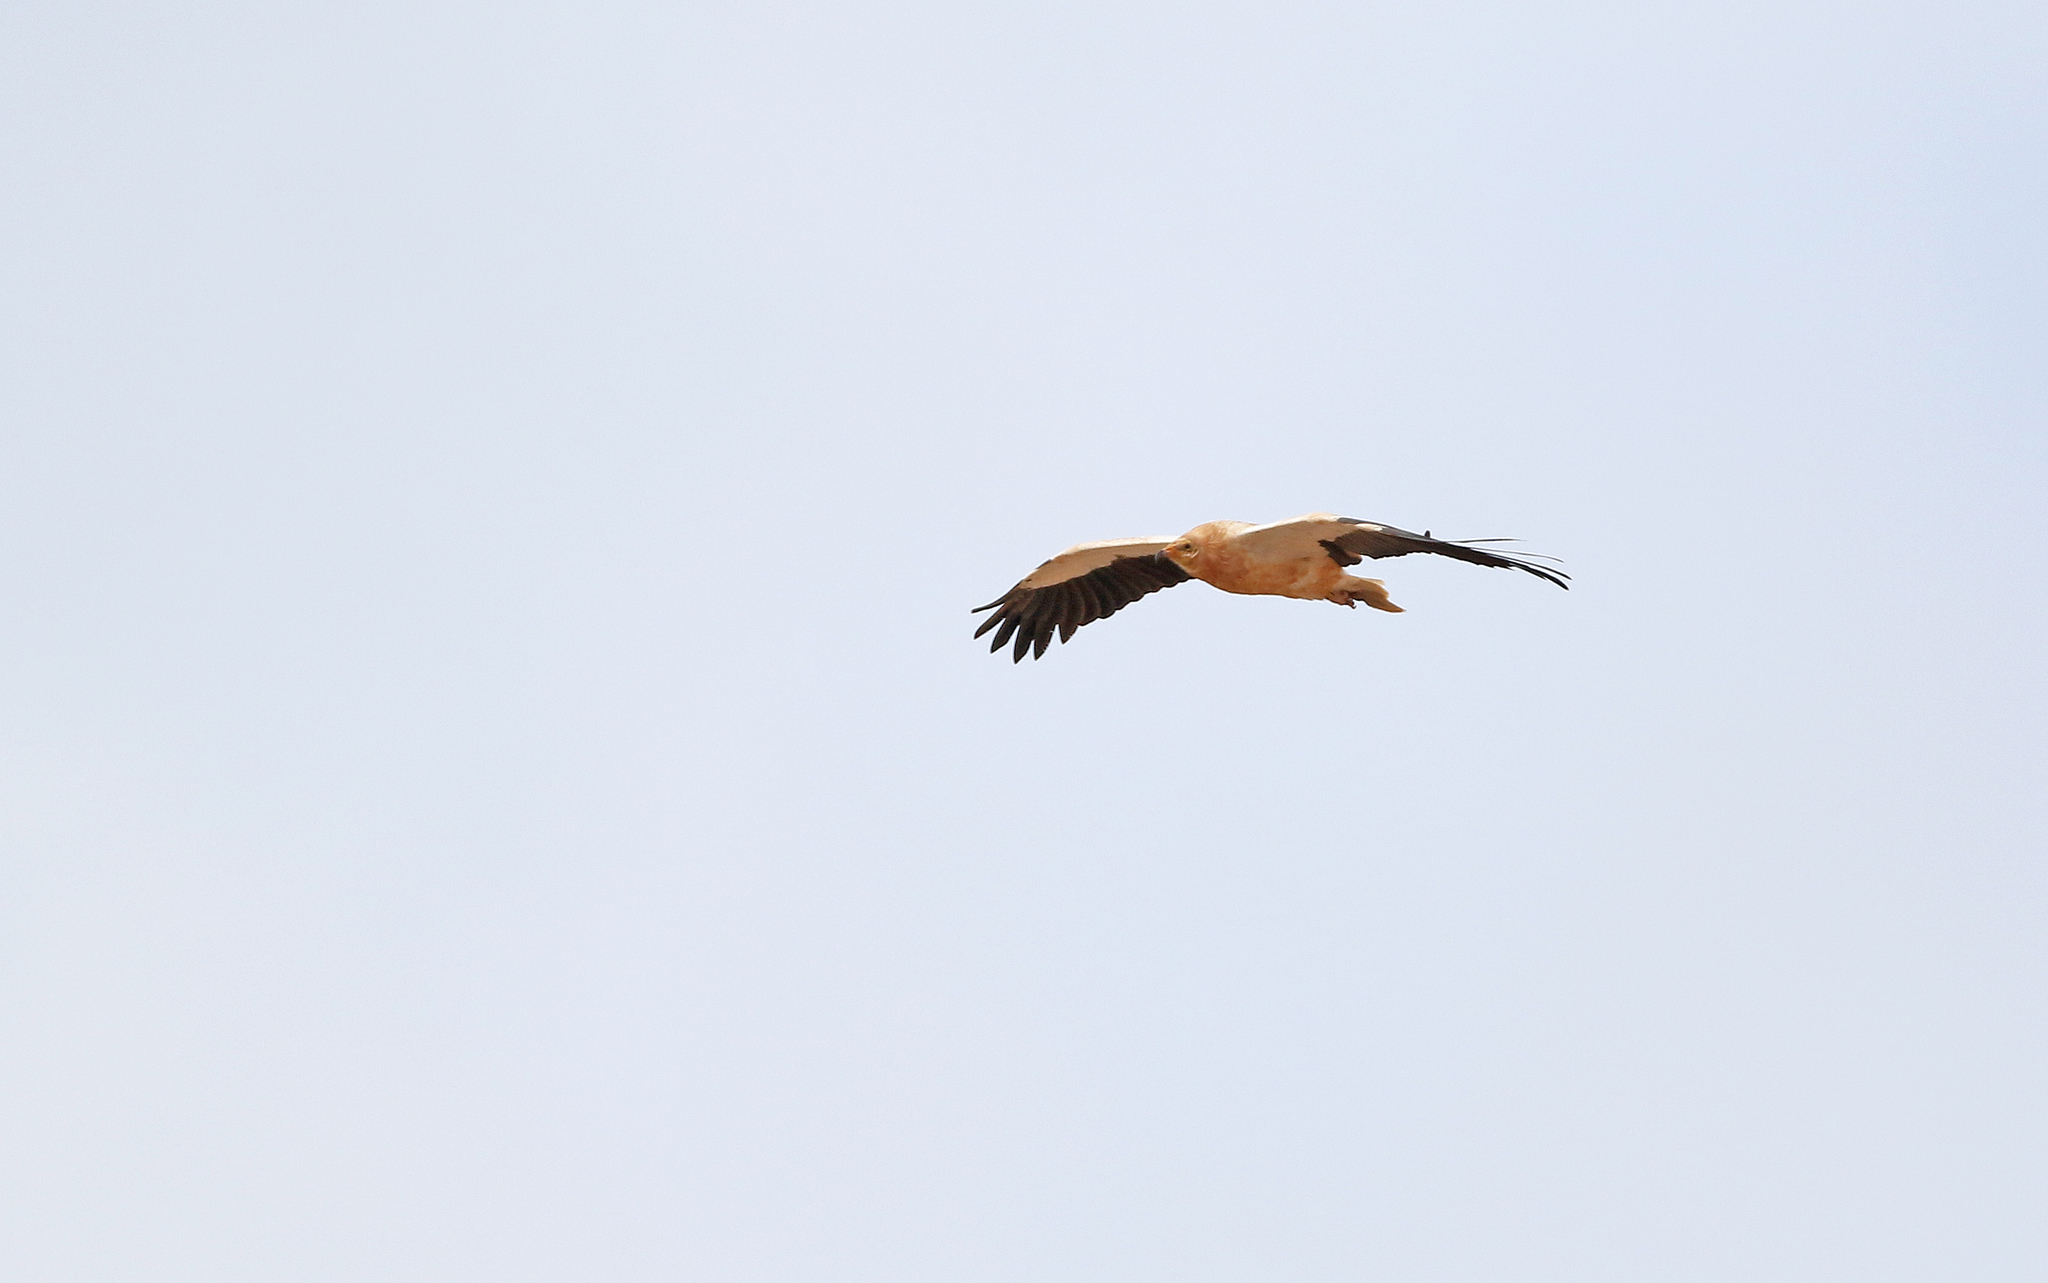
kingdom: Animalia
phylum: Chordata
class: Aves
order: Accipitriformes
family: Accipitridae
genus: Neophron
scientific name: Neophron percnopterus
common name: Egyptian vulture
